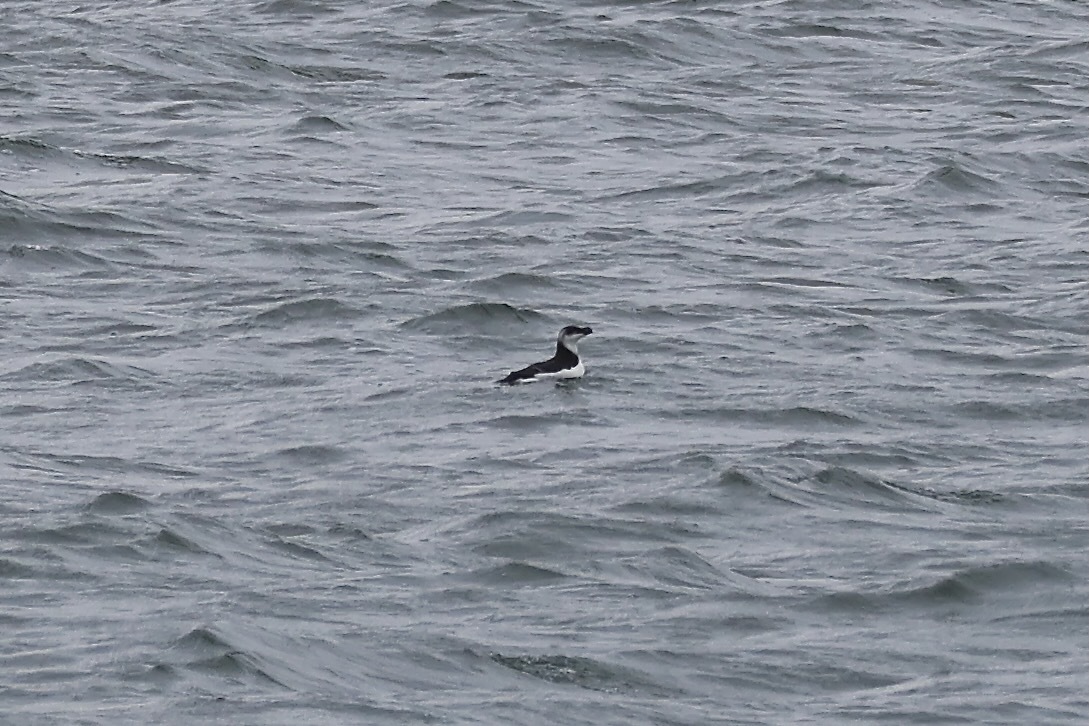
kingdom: Animalia
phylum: Chordata
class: Aves
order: Charadriiformes
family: Alcidae
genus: Alca
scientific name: Alca torda
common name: Razorbill
